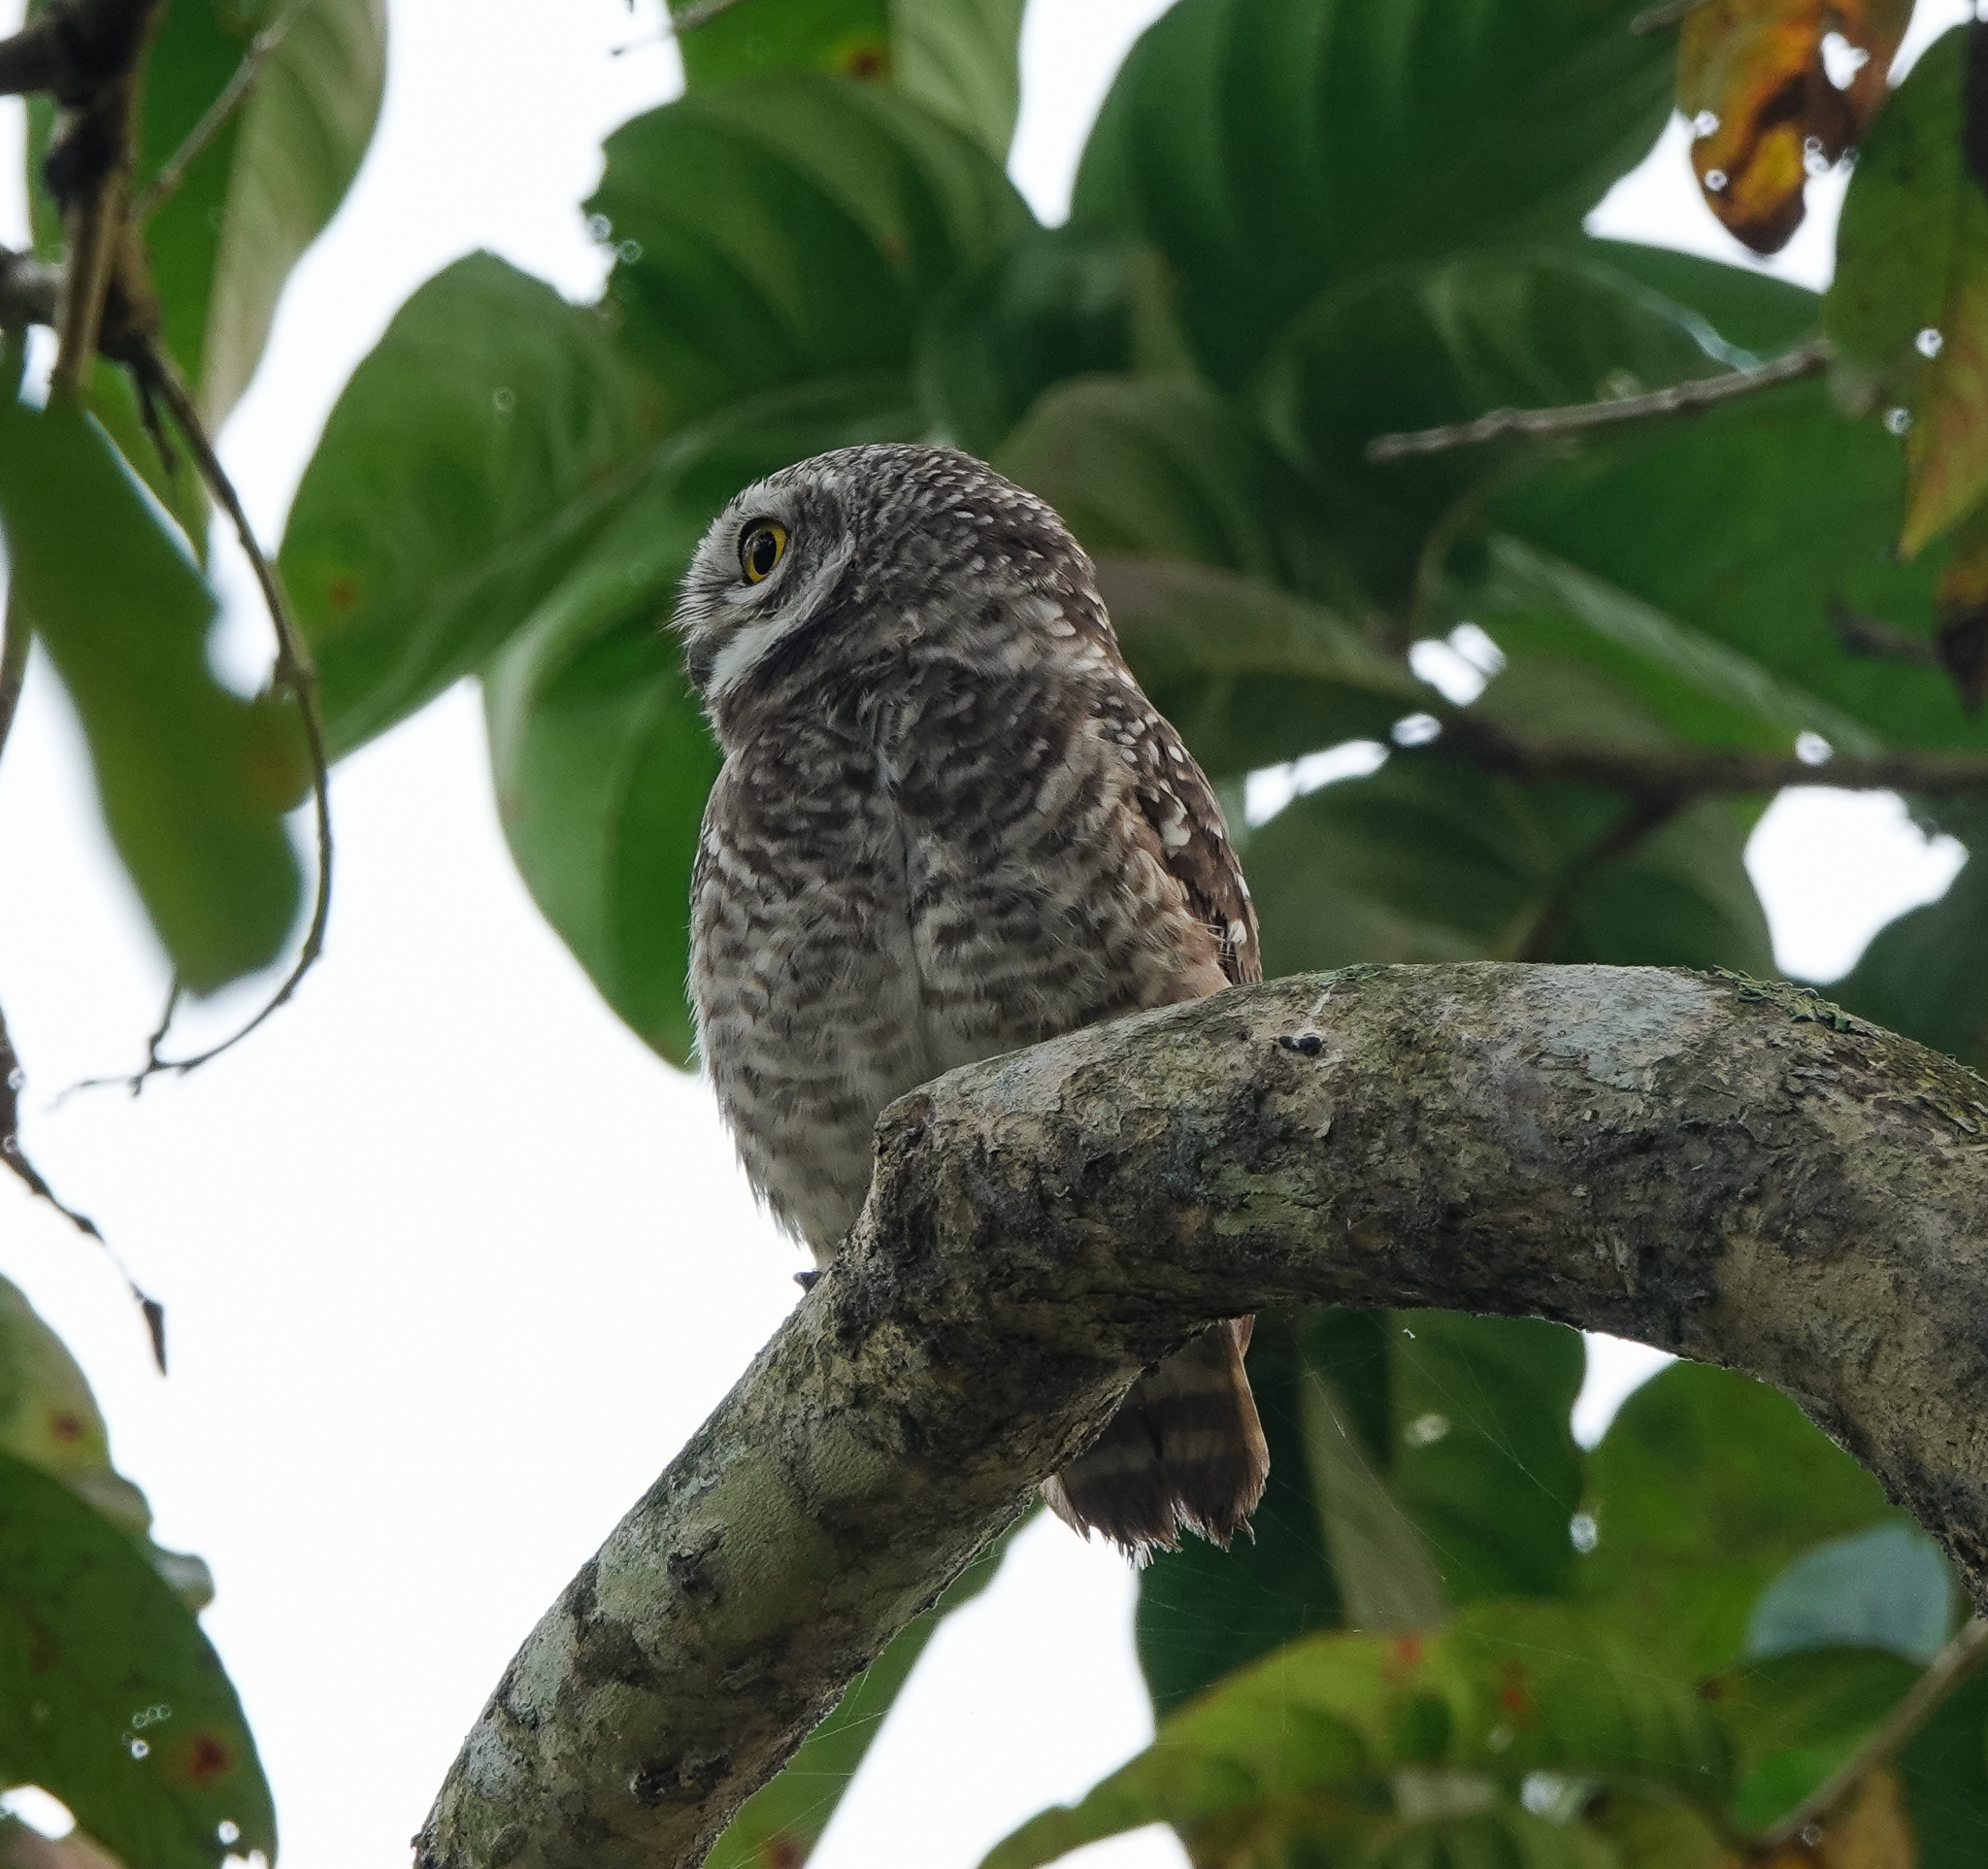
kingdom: Animalia
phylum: Chordata
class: Aves
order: Strigiformes
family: Strigidae
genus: Athene
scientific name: Athene brama
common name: Spotted owlet
